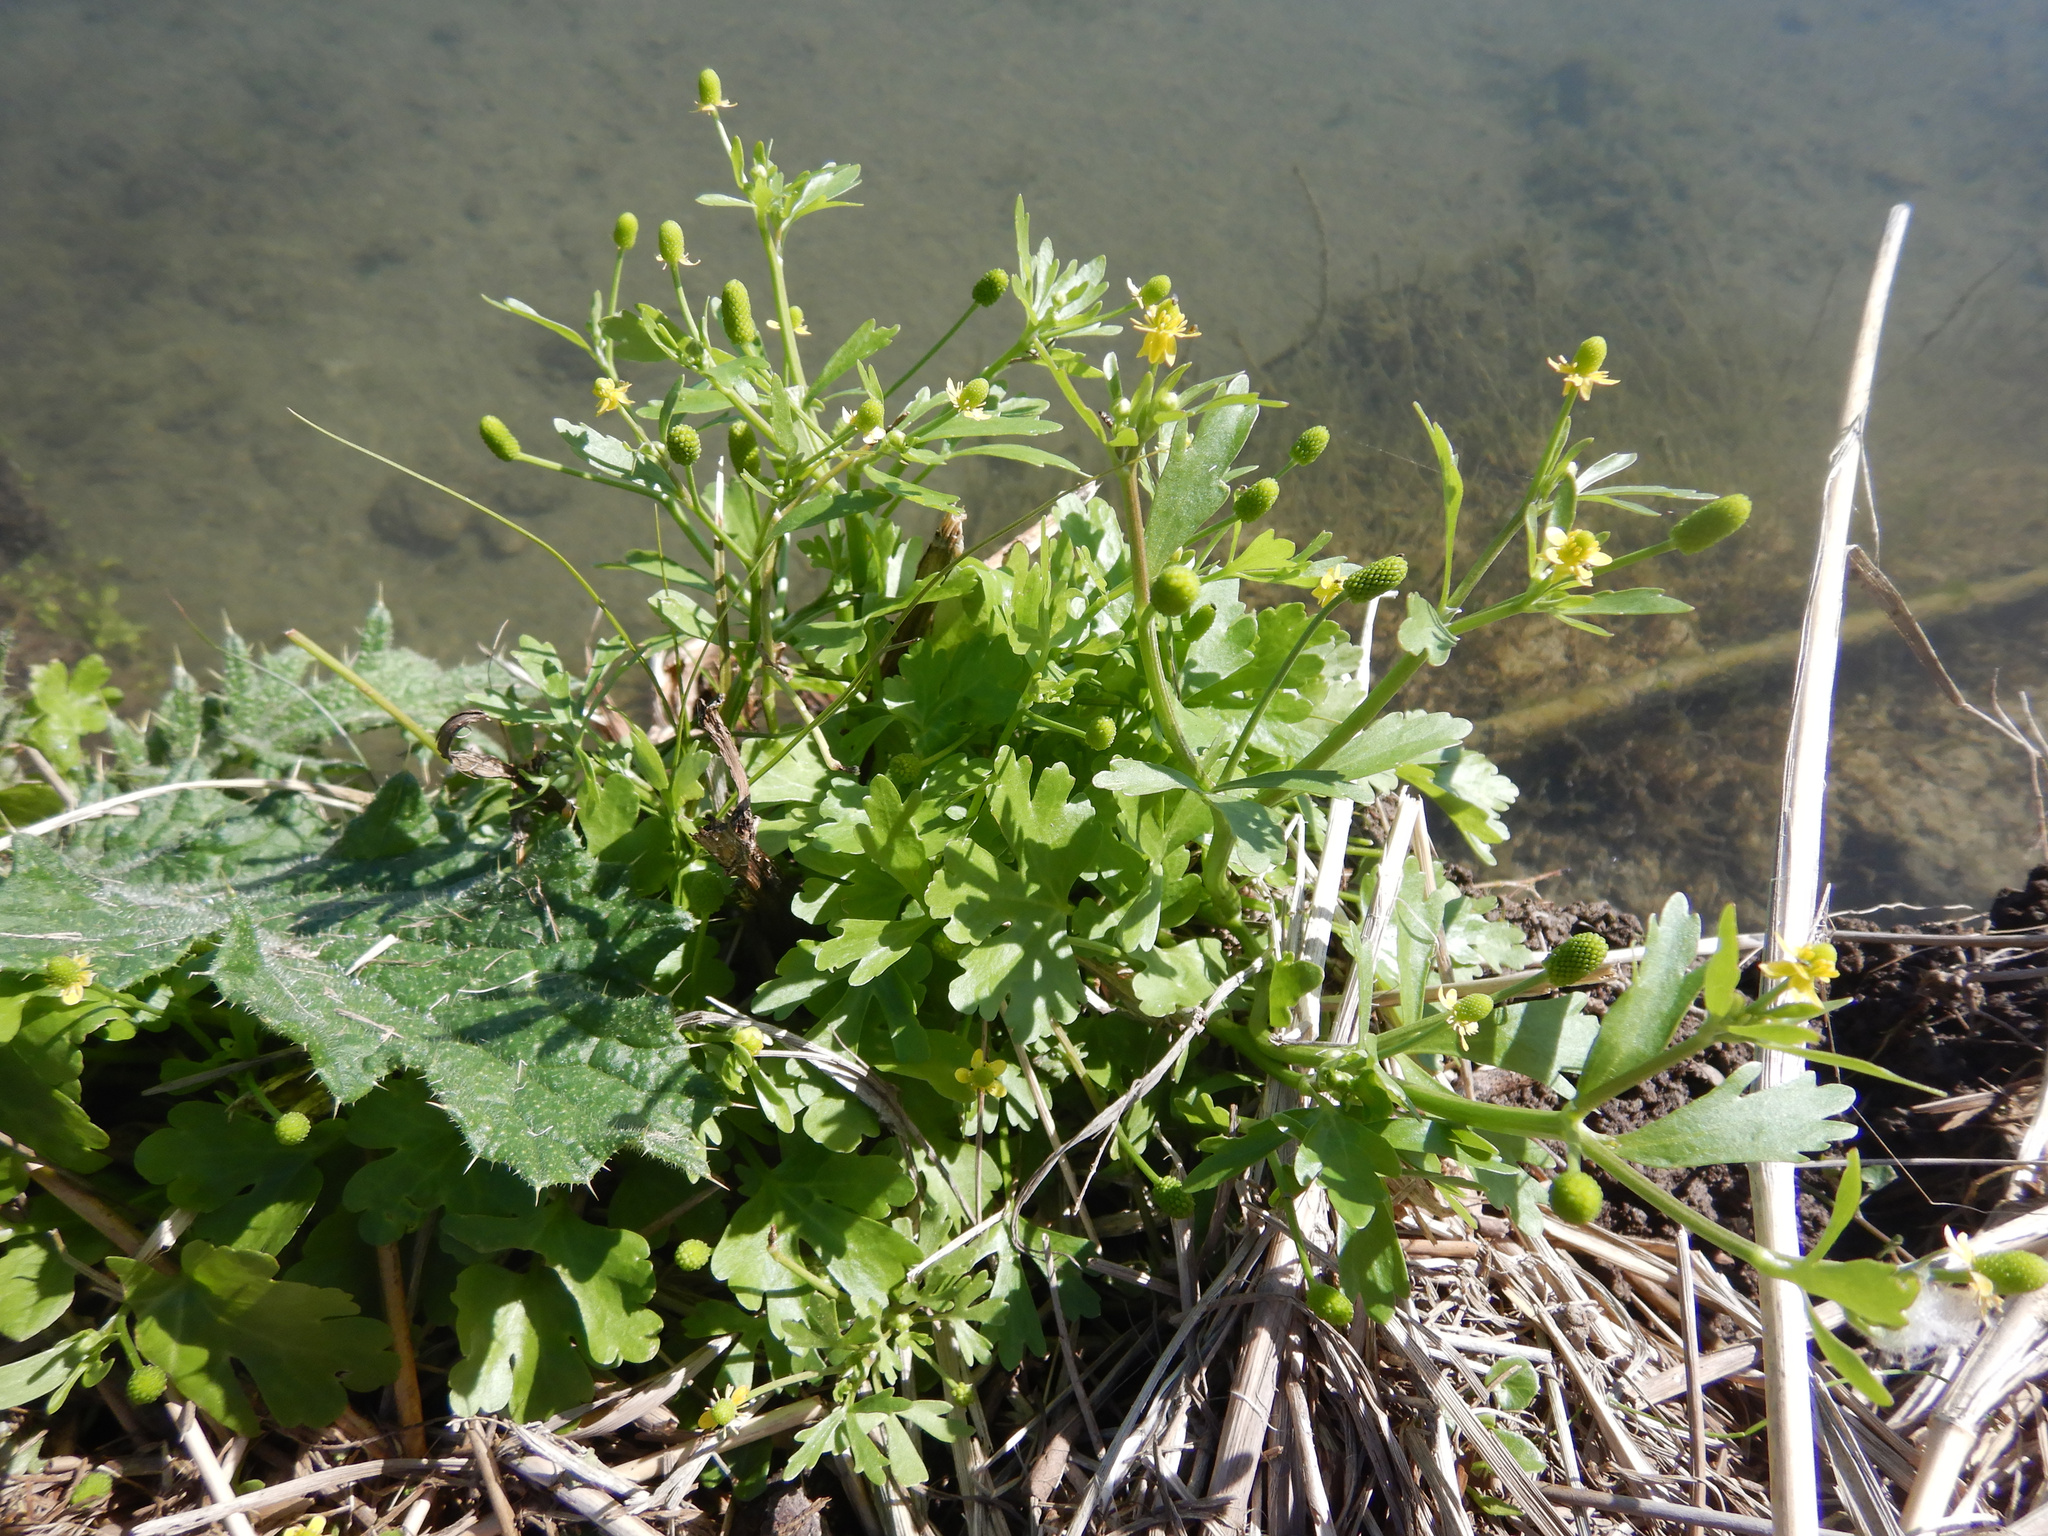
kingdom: Plantae
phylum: Tracheophyta
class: Magnoliopsida
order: Ranunculales
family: Ranunculaceae
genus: Ranunculus
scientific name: Ranunculus sceleratus
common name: Celery-leaved buttercup
